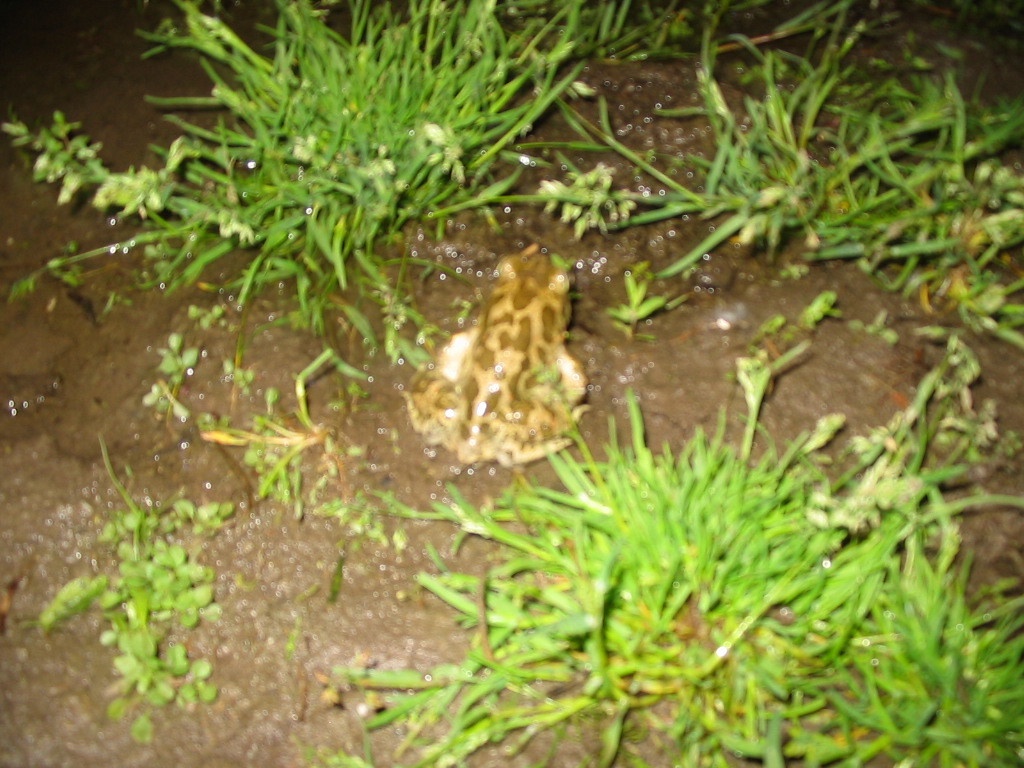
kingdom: Animalia
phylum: Chordata
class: Amphibia
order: Anura
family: Pelobatidae
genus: Pelobates
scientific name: Pelobates balcanicus
